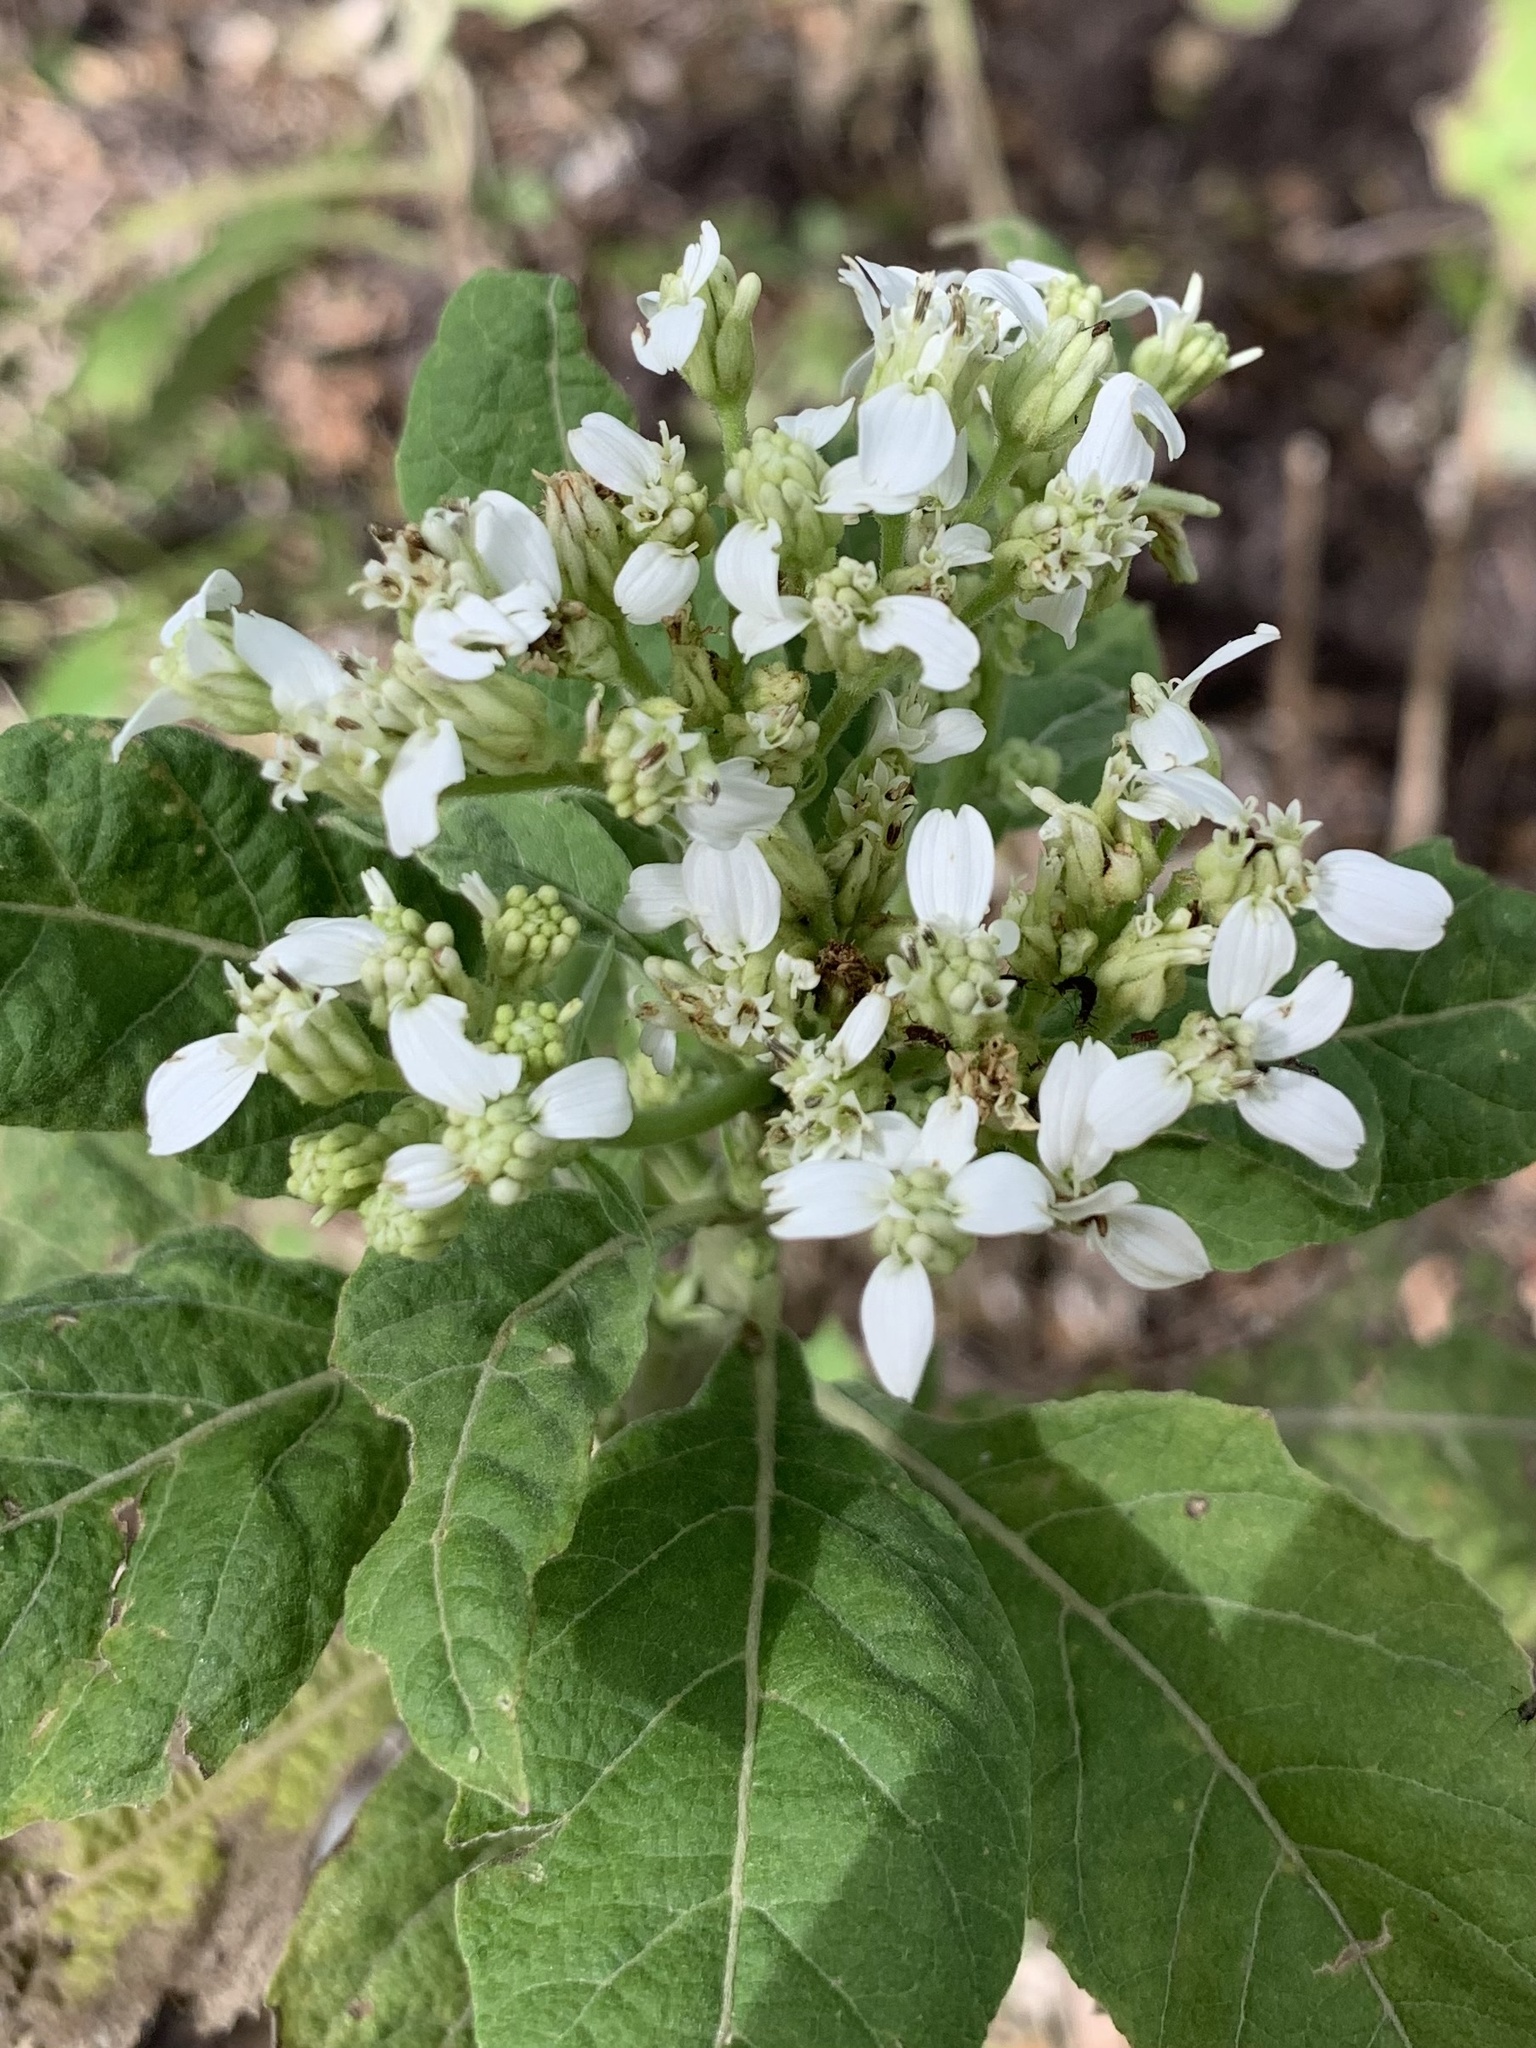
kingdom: Plantae
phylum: Tracheophyta
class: Magnoliopsida
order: Asterales
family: Asteraceae
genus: Verbesina
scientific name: Verbesina virginica
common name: Frostweed
